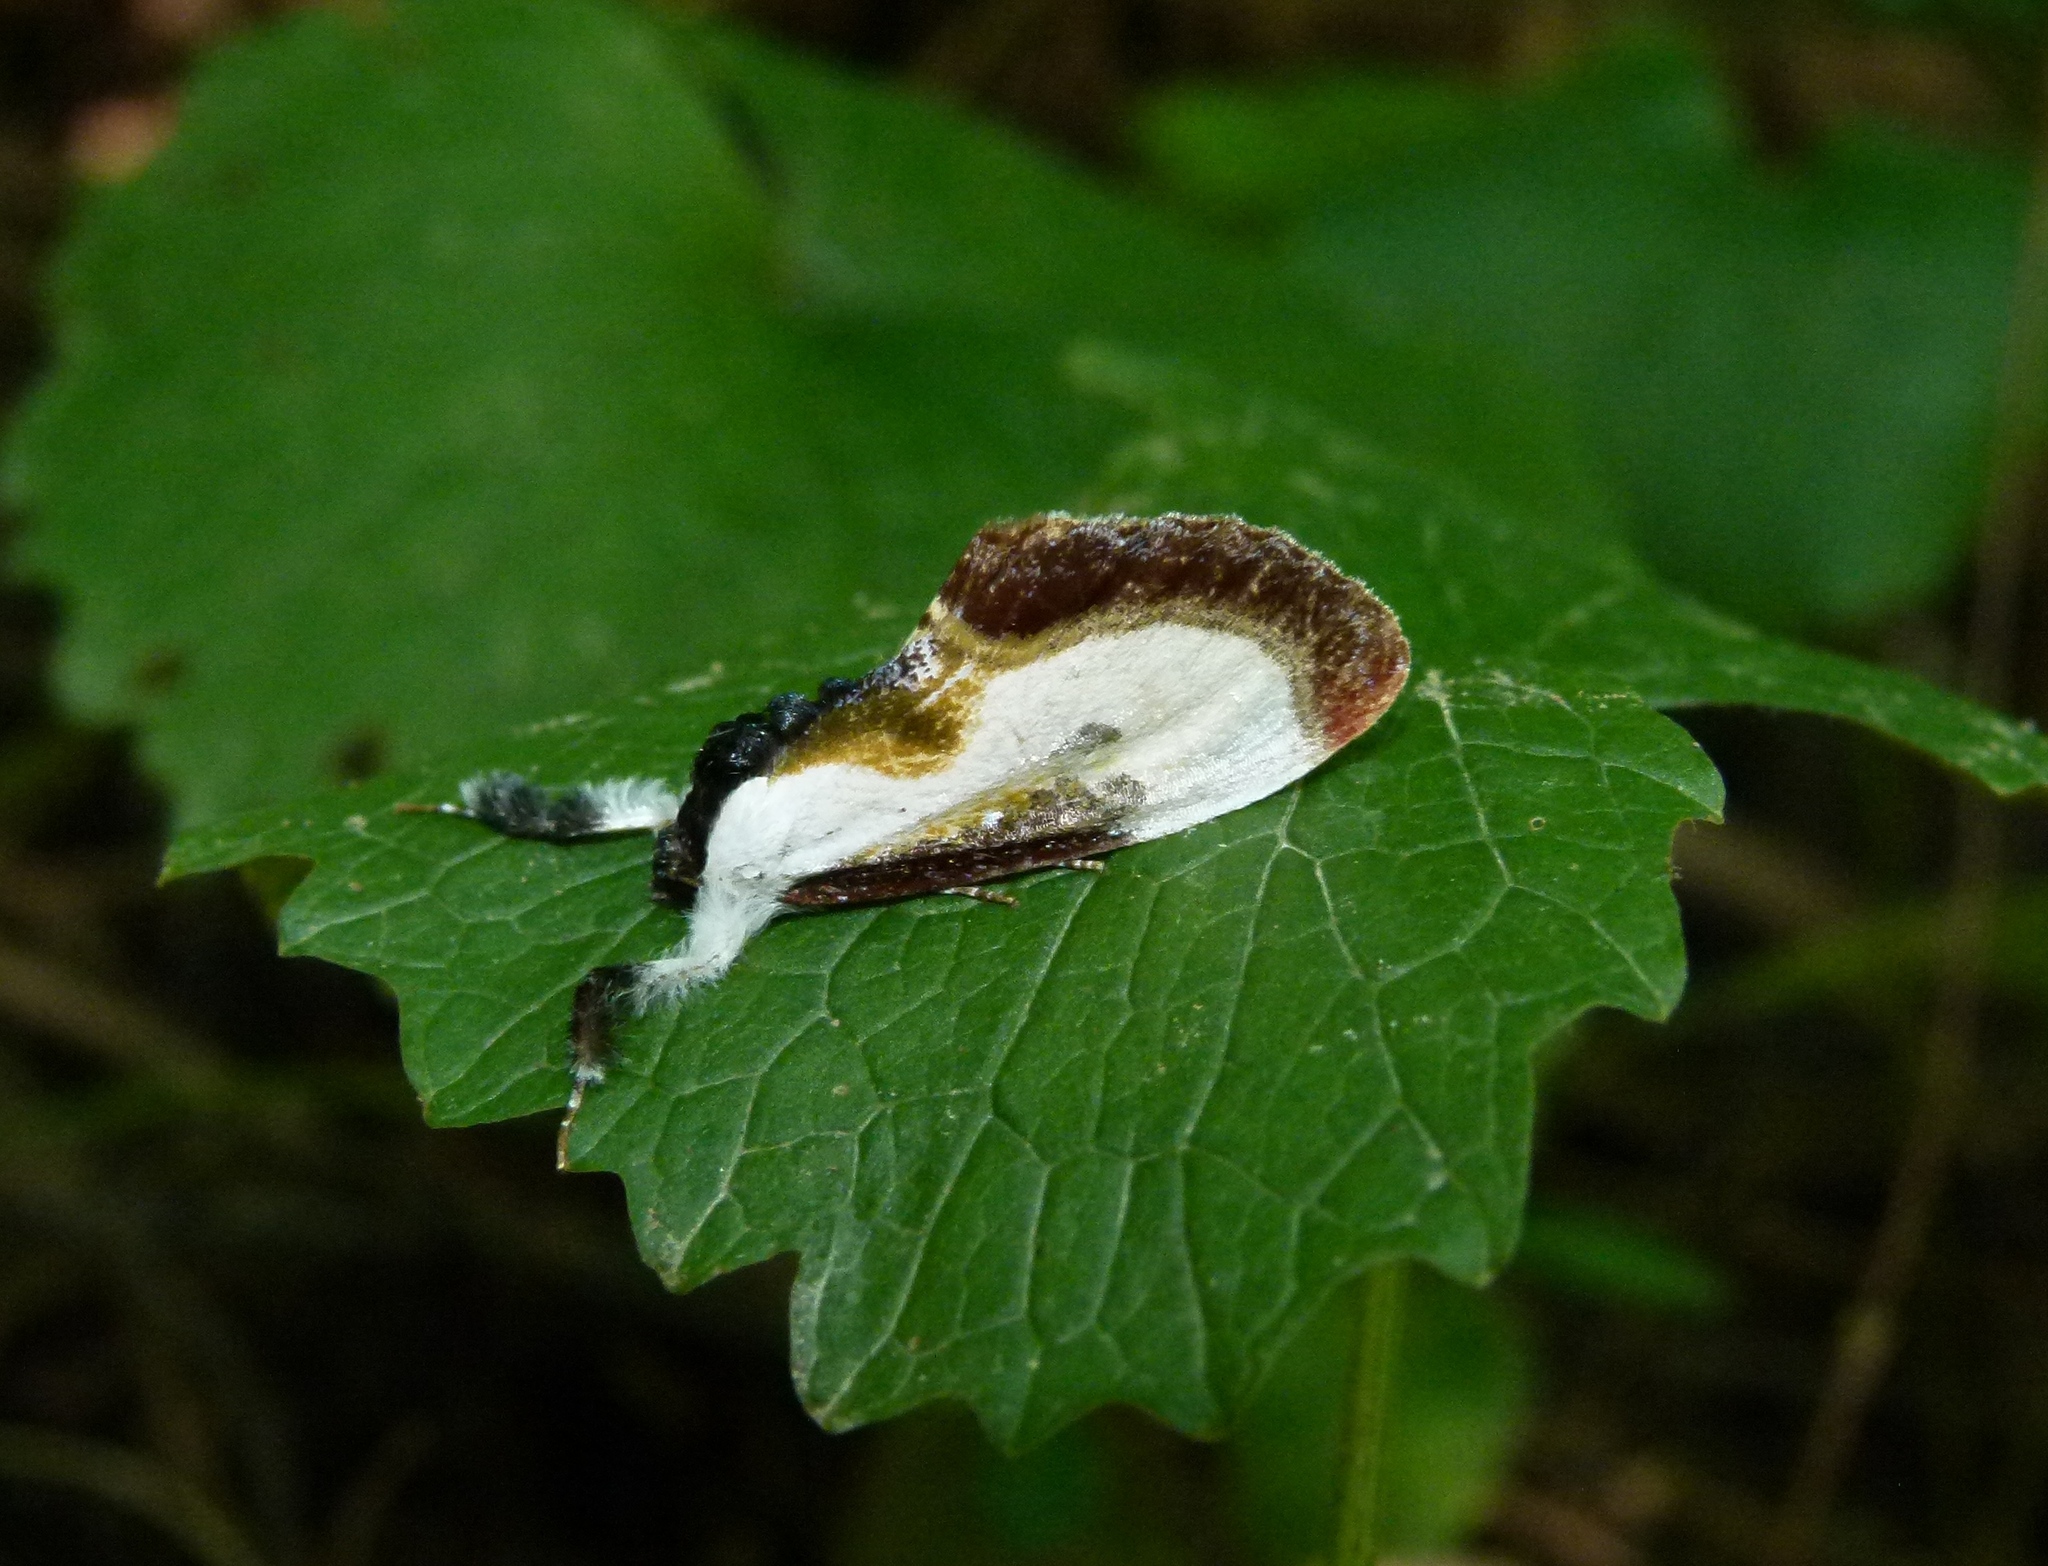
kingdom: Animalia
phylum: Arthropoda
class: Insecta
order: Lepidoptera
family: Noctuidae
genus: Eudryas
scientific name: Eudryas grata
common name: Beautiful wood-nymph
